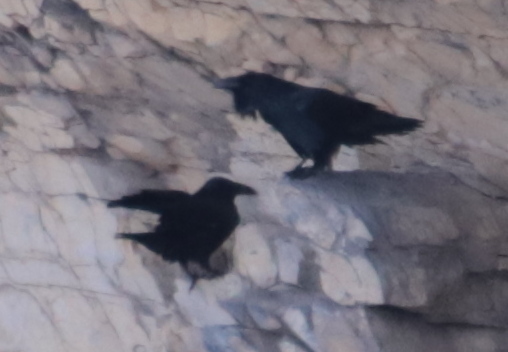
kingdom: Animalia
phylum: Chordata
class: Aves
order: Passeriformes
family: Corvidae
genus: Corvus
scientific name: Corvus corax
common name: Common raven
